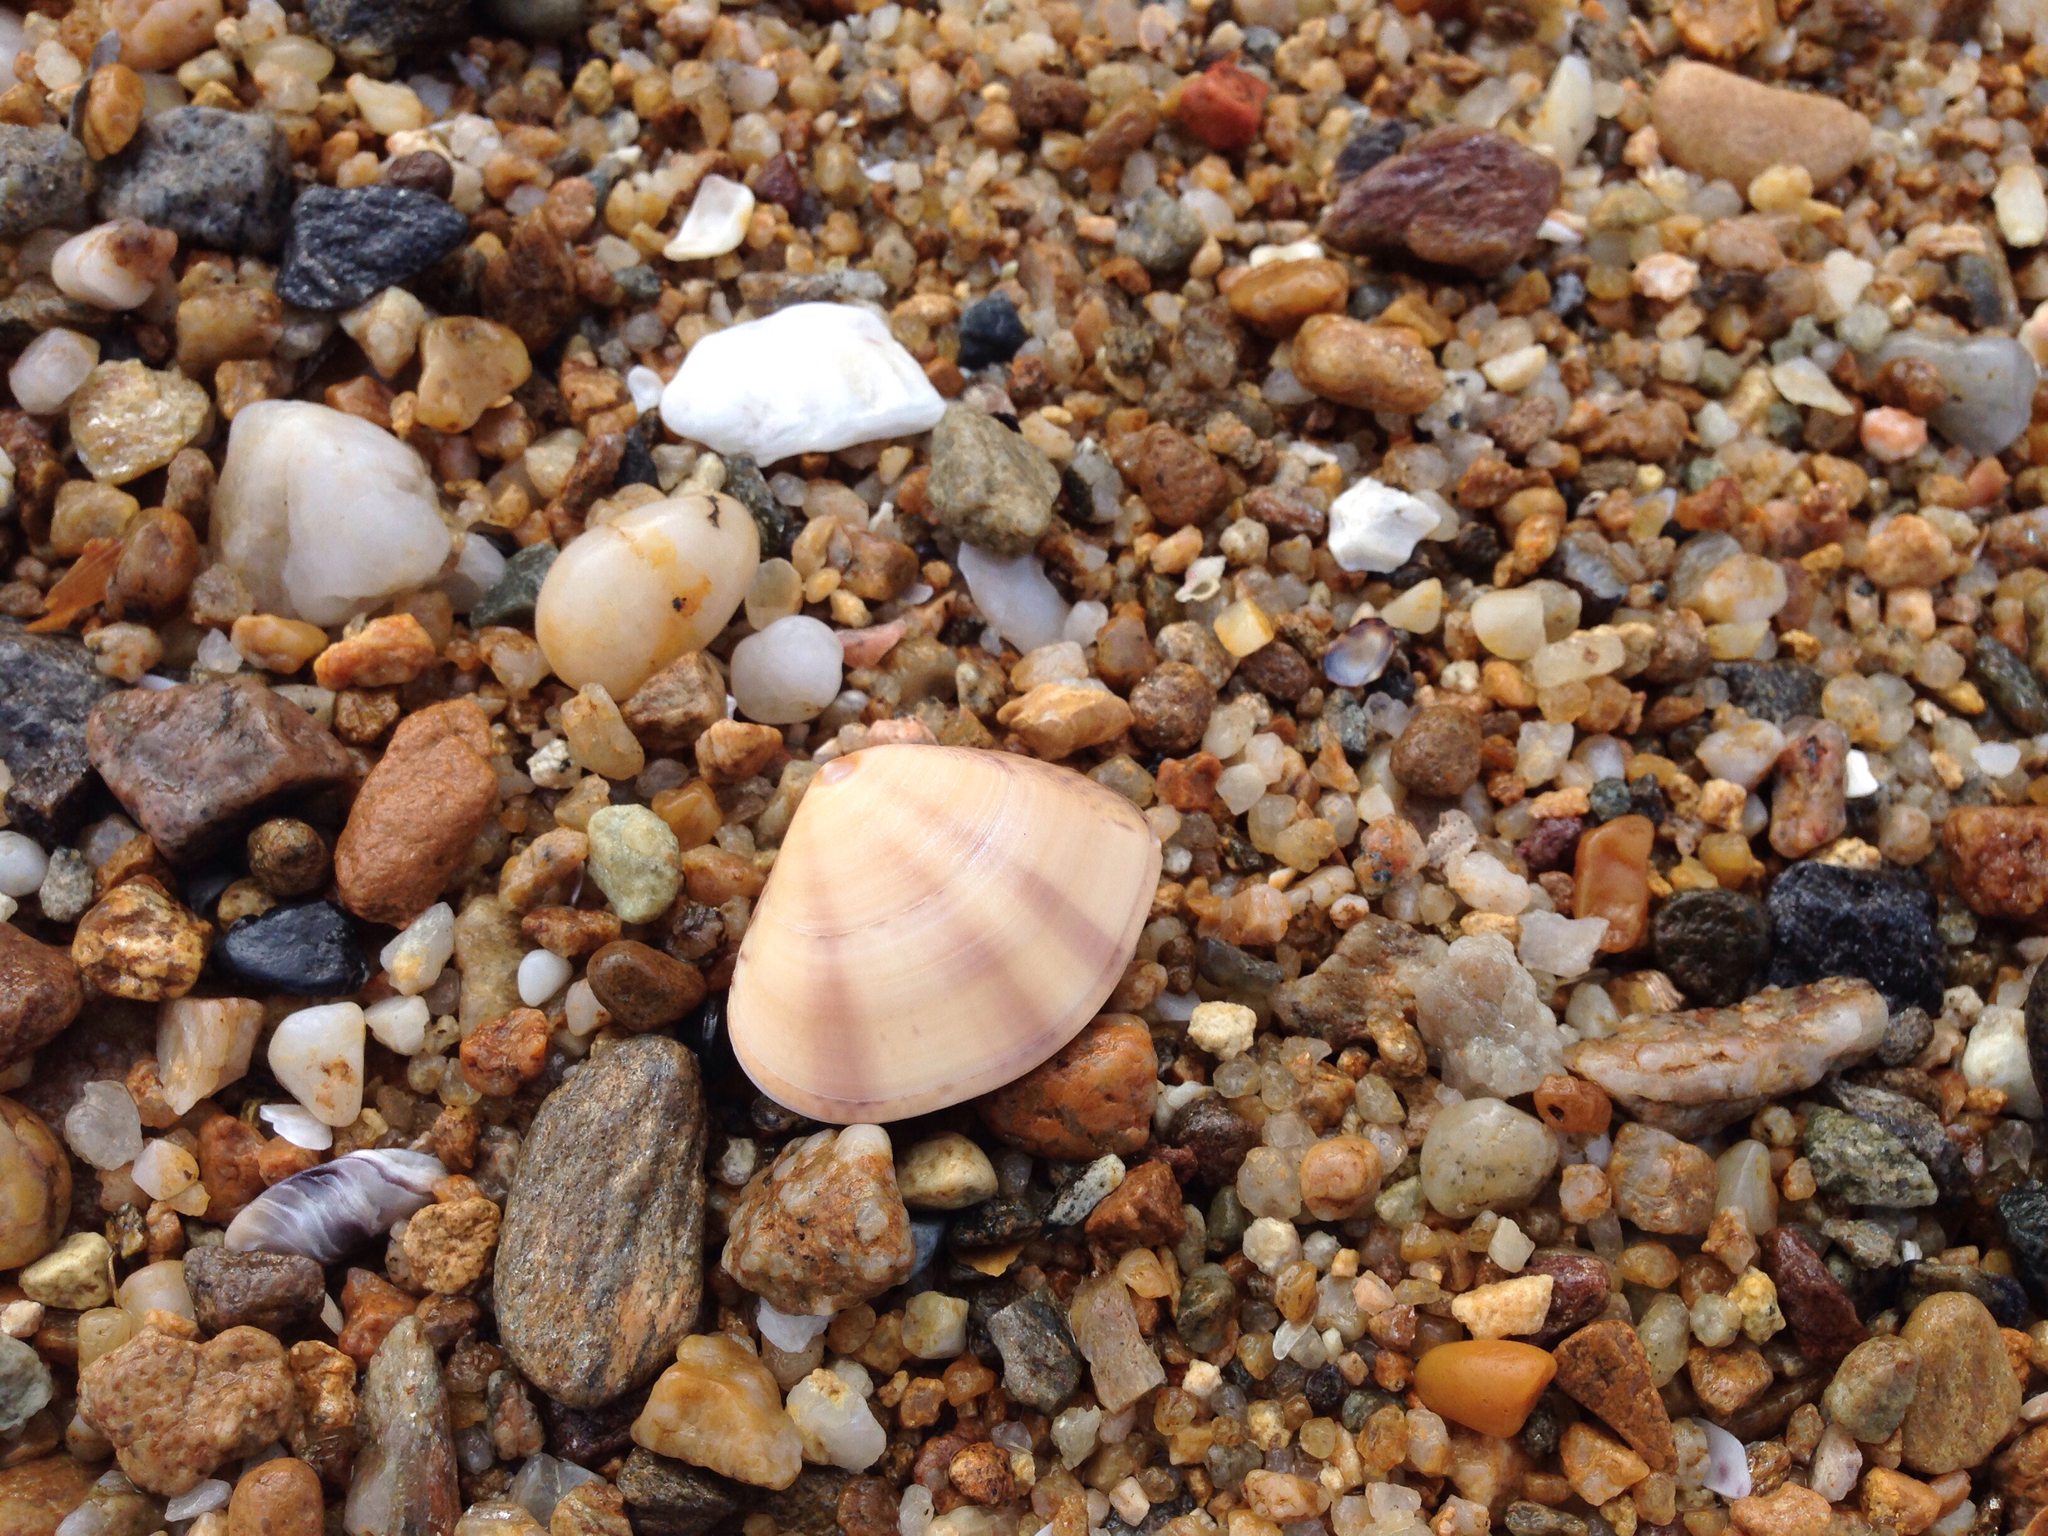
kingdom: Animalia
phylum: Mollusca
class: Bivalvia
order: Venerida
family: Veneridae
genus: Macridiscus
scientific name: Macridiscus multifarius
